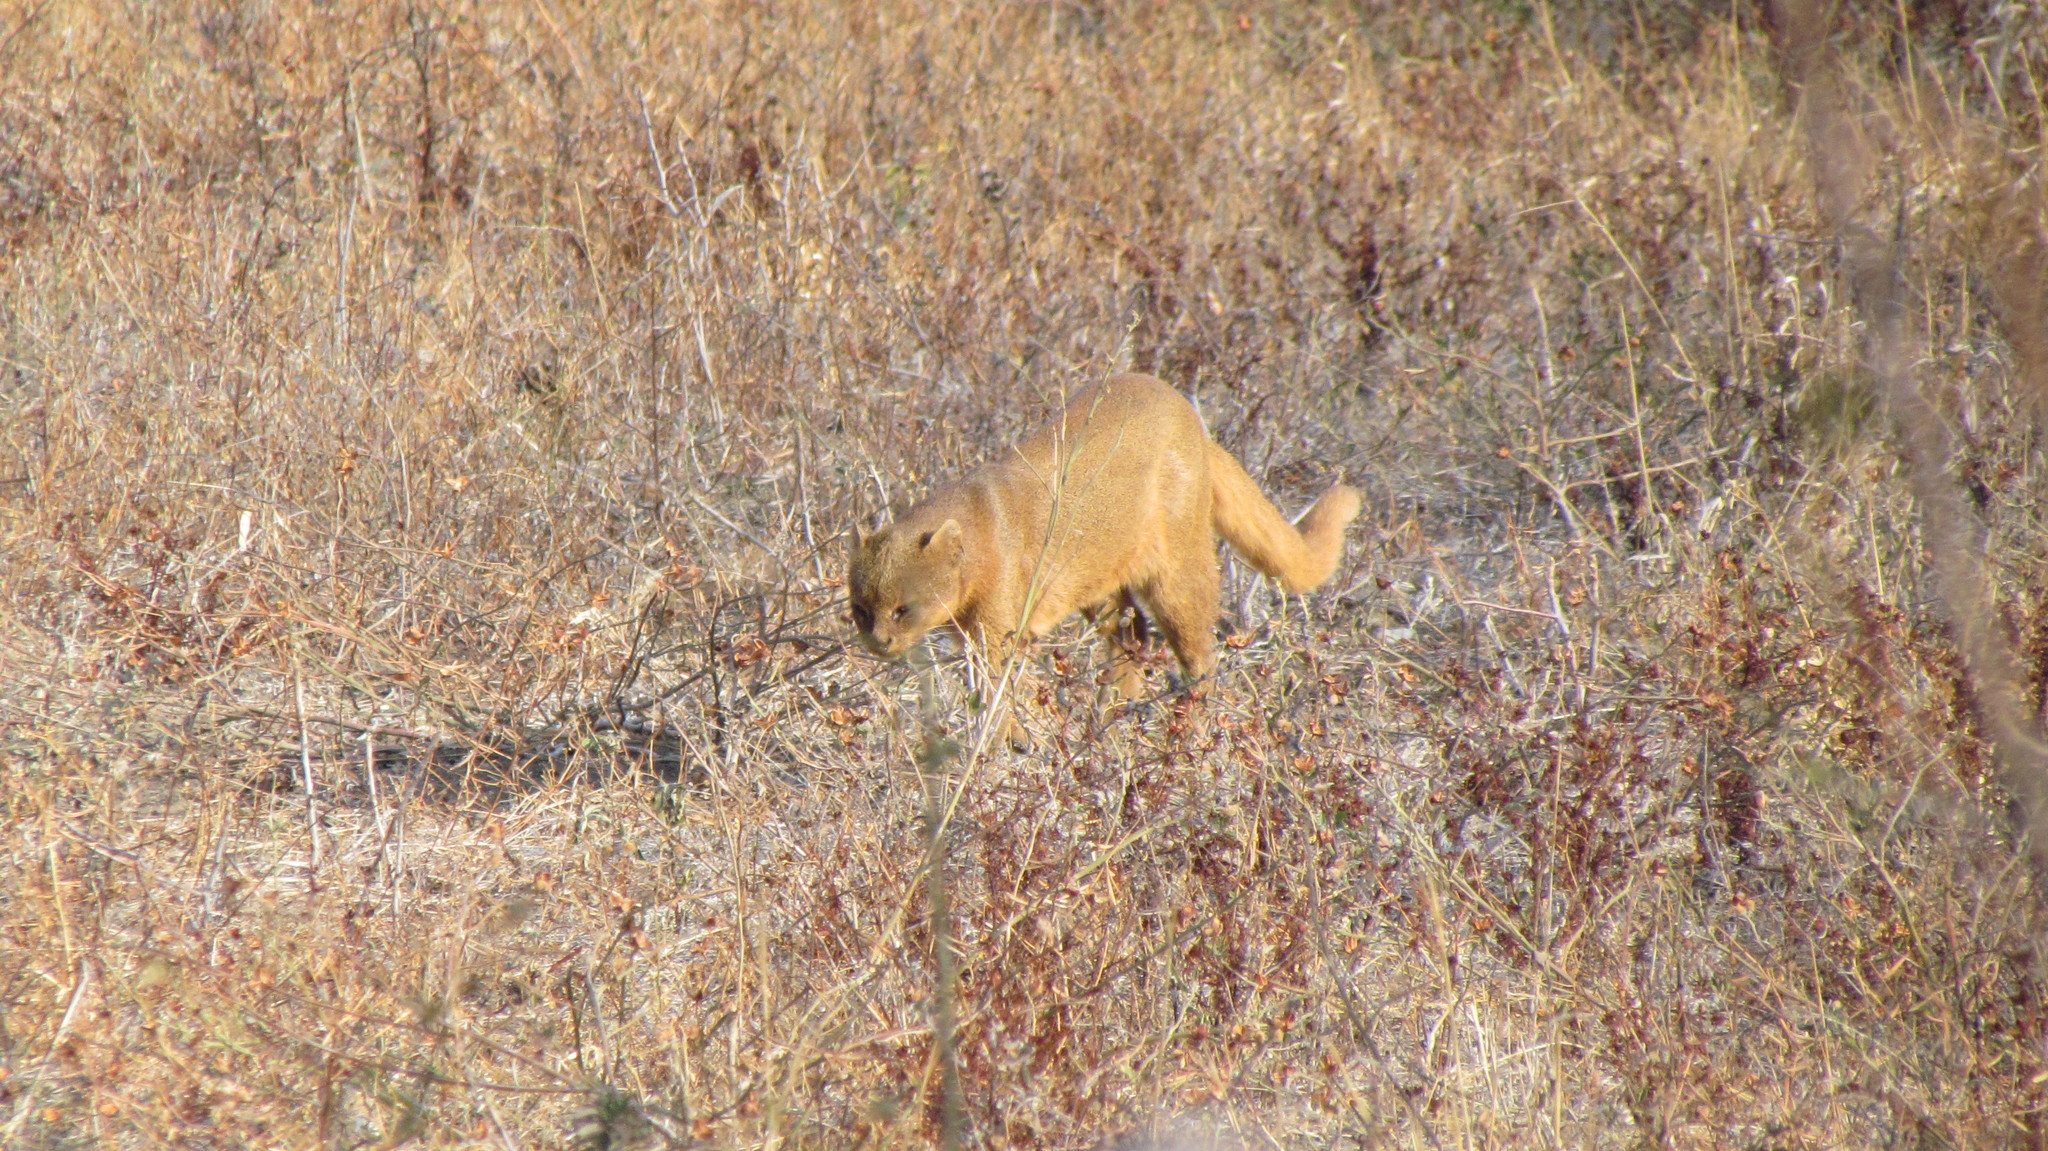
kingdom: Animalia
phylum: Chordata
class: Mammalia
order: Carnivora
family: Felidae
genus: Puma
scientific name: Puma yagouaroundi
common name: Jaguarundi
